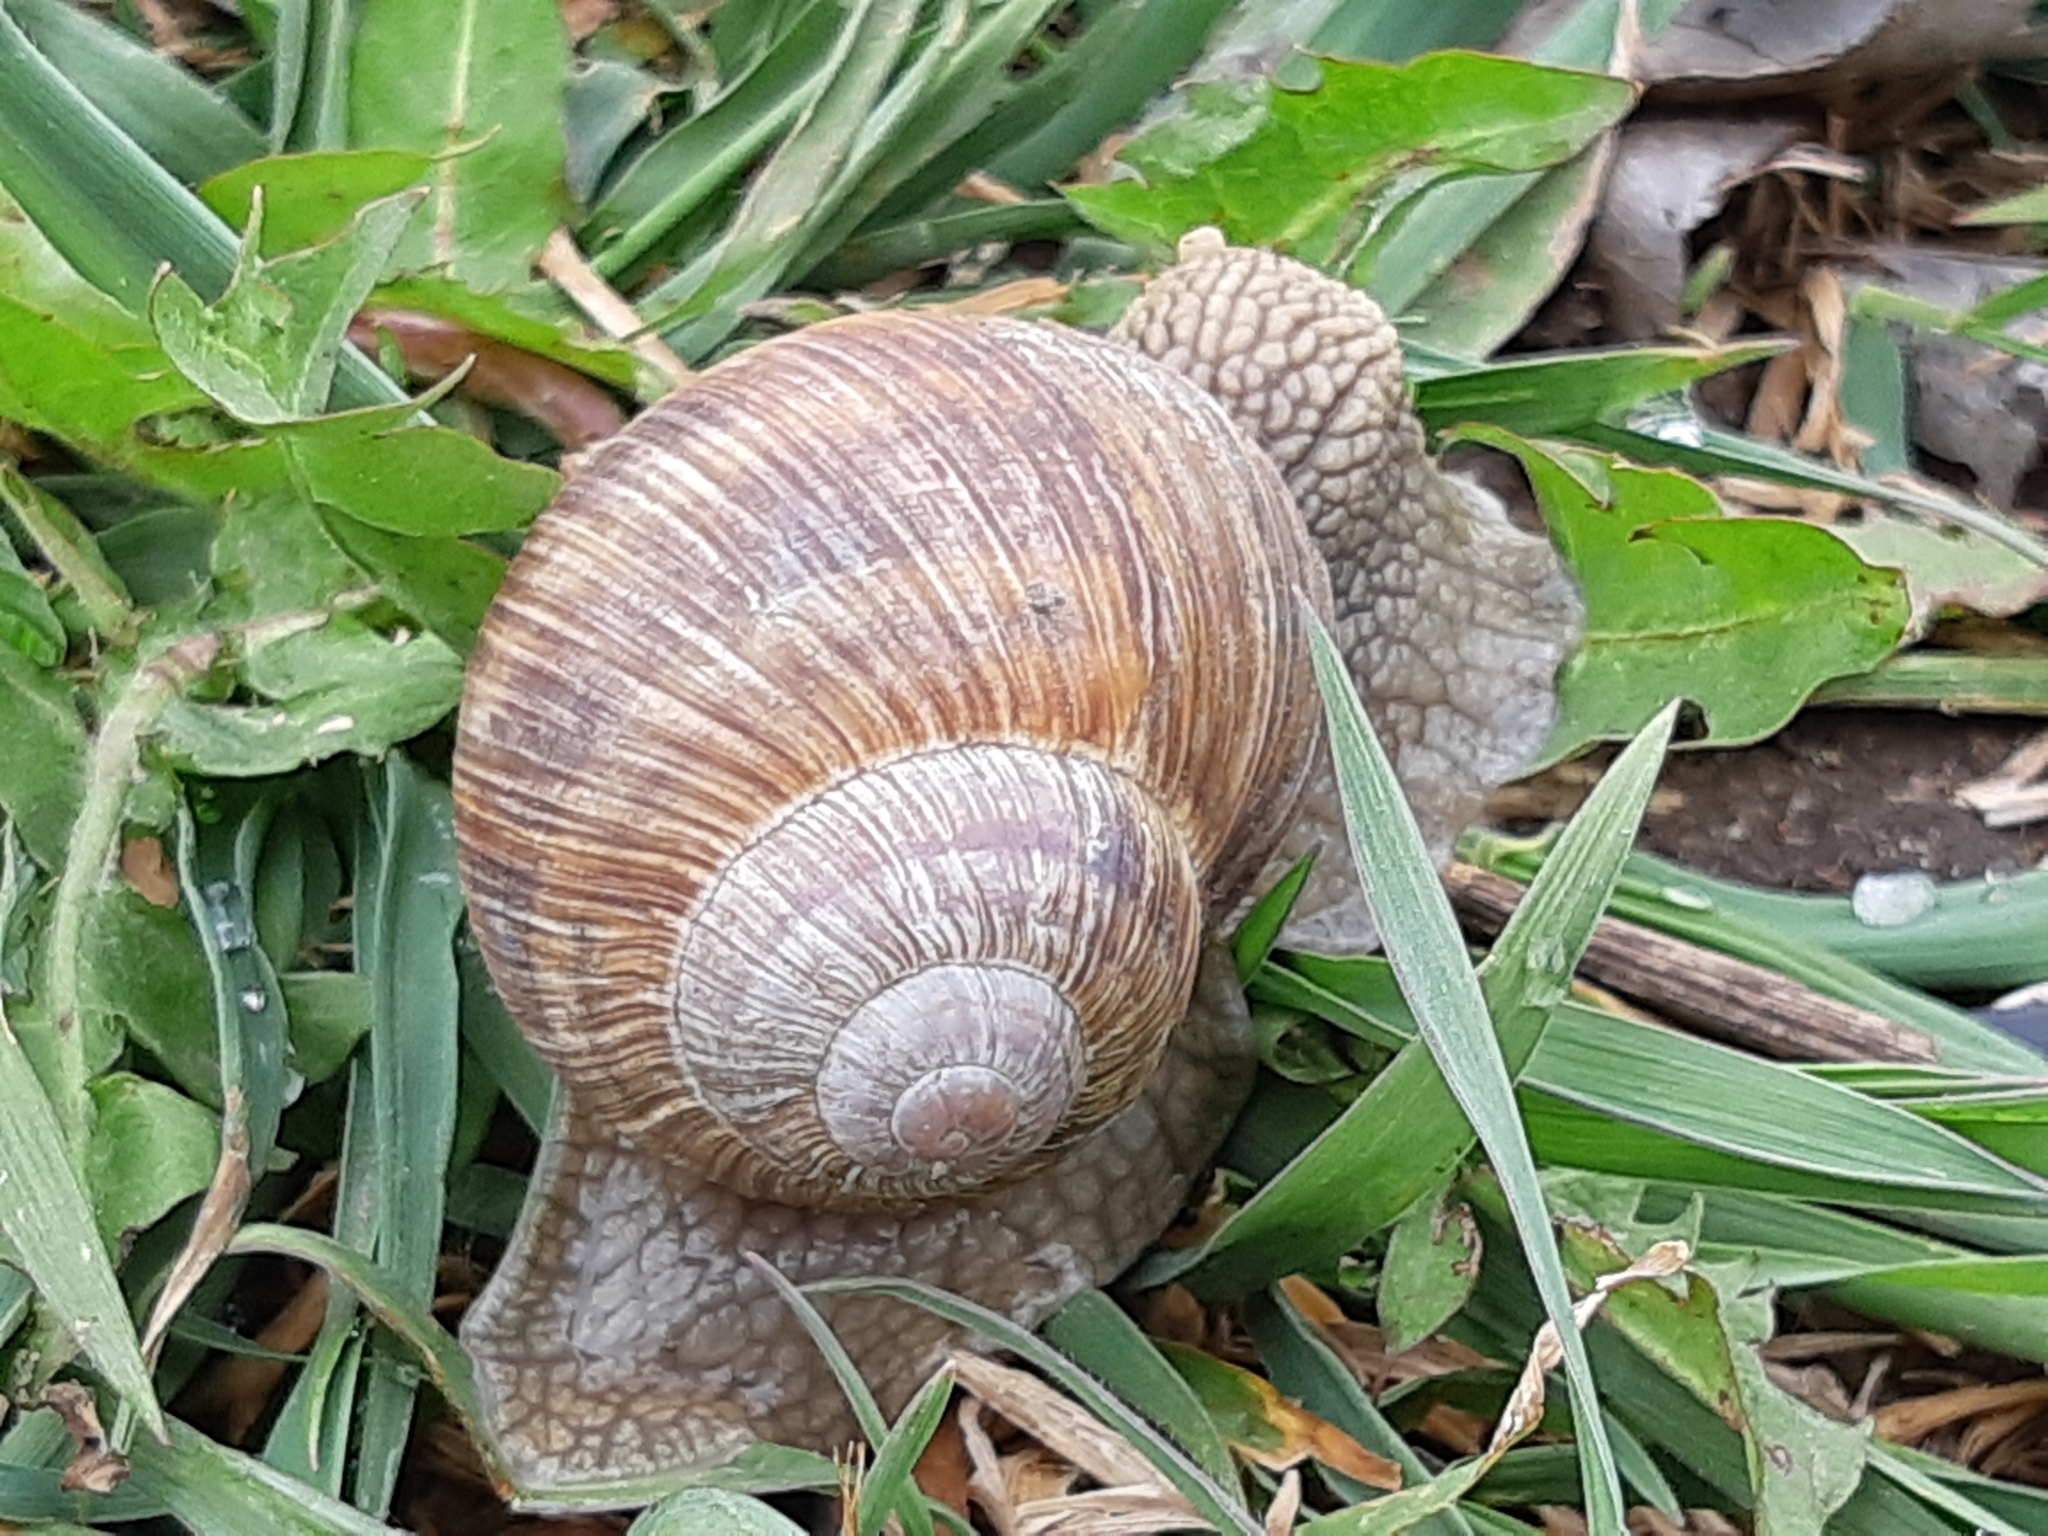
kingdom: Animalia
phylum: Mollusca
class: Gastropoda
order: Stylommatophora
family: Helicidae
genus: Helix
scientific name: Helix pomatia
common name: Roman snail
